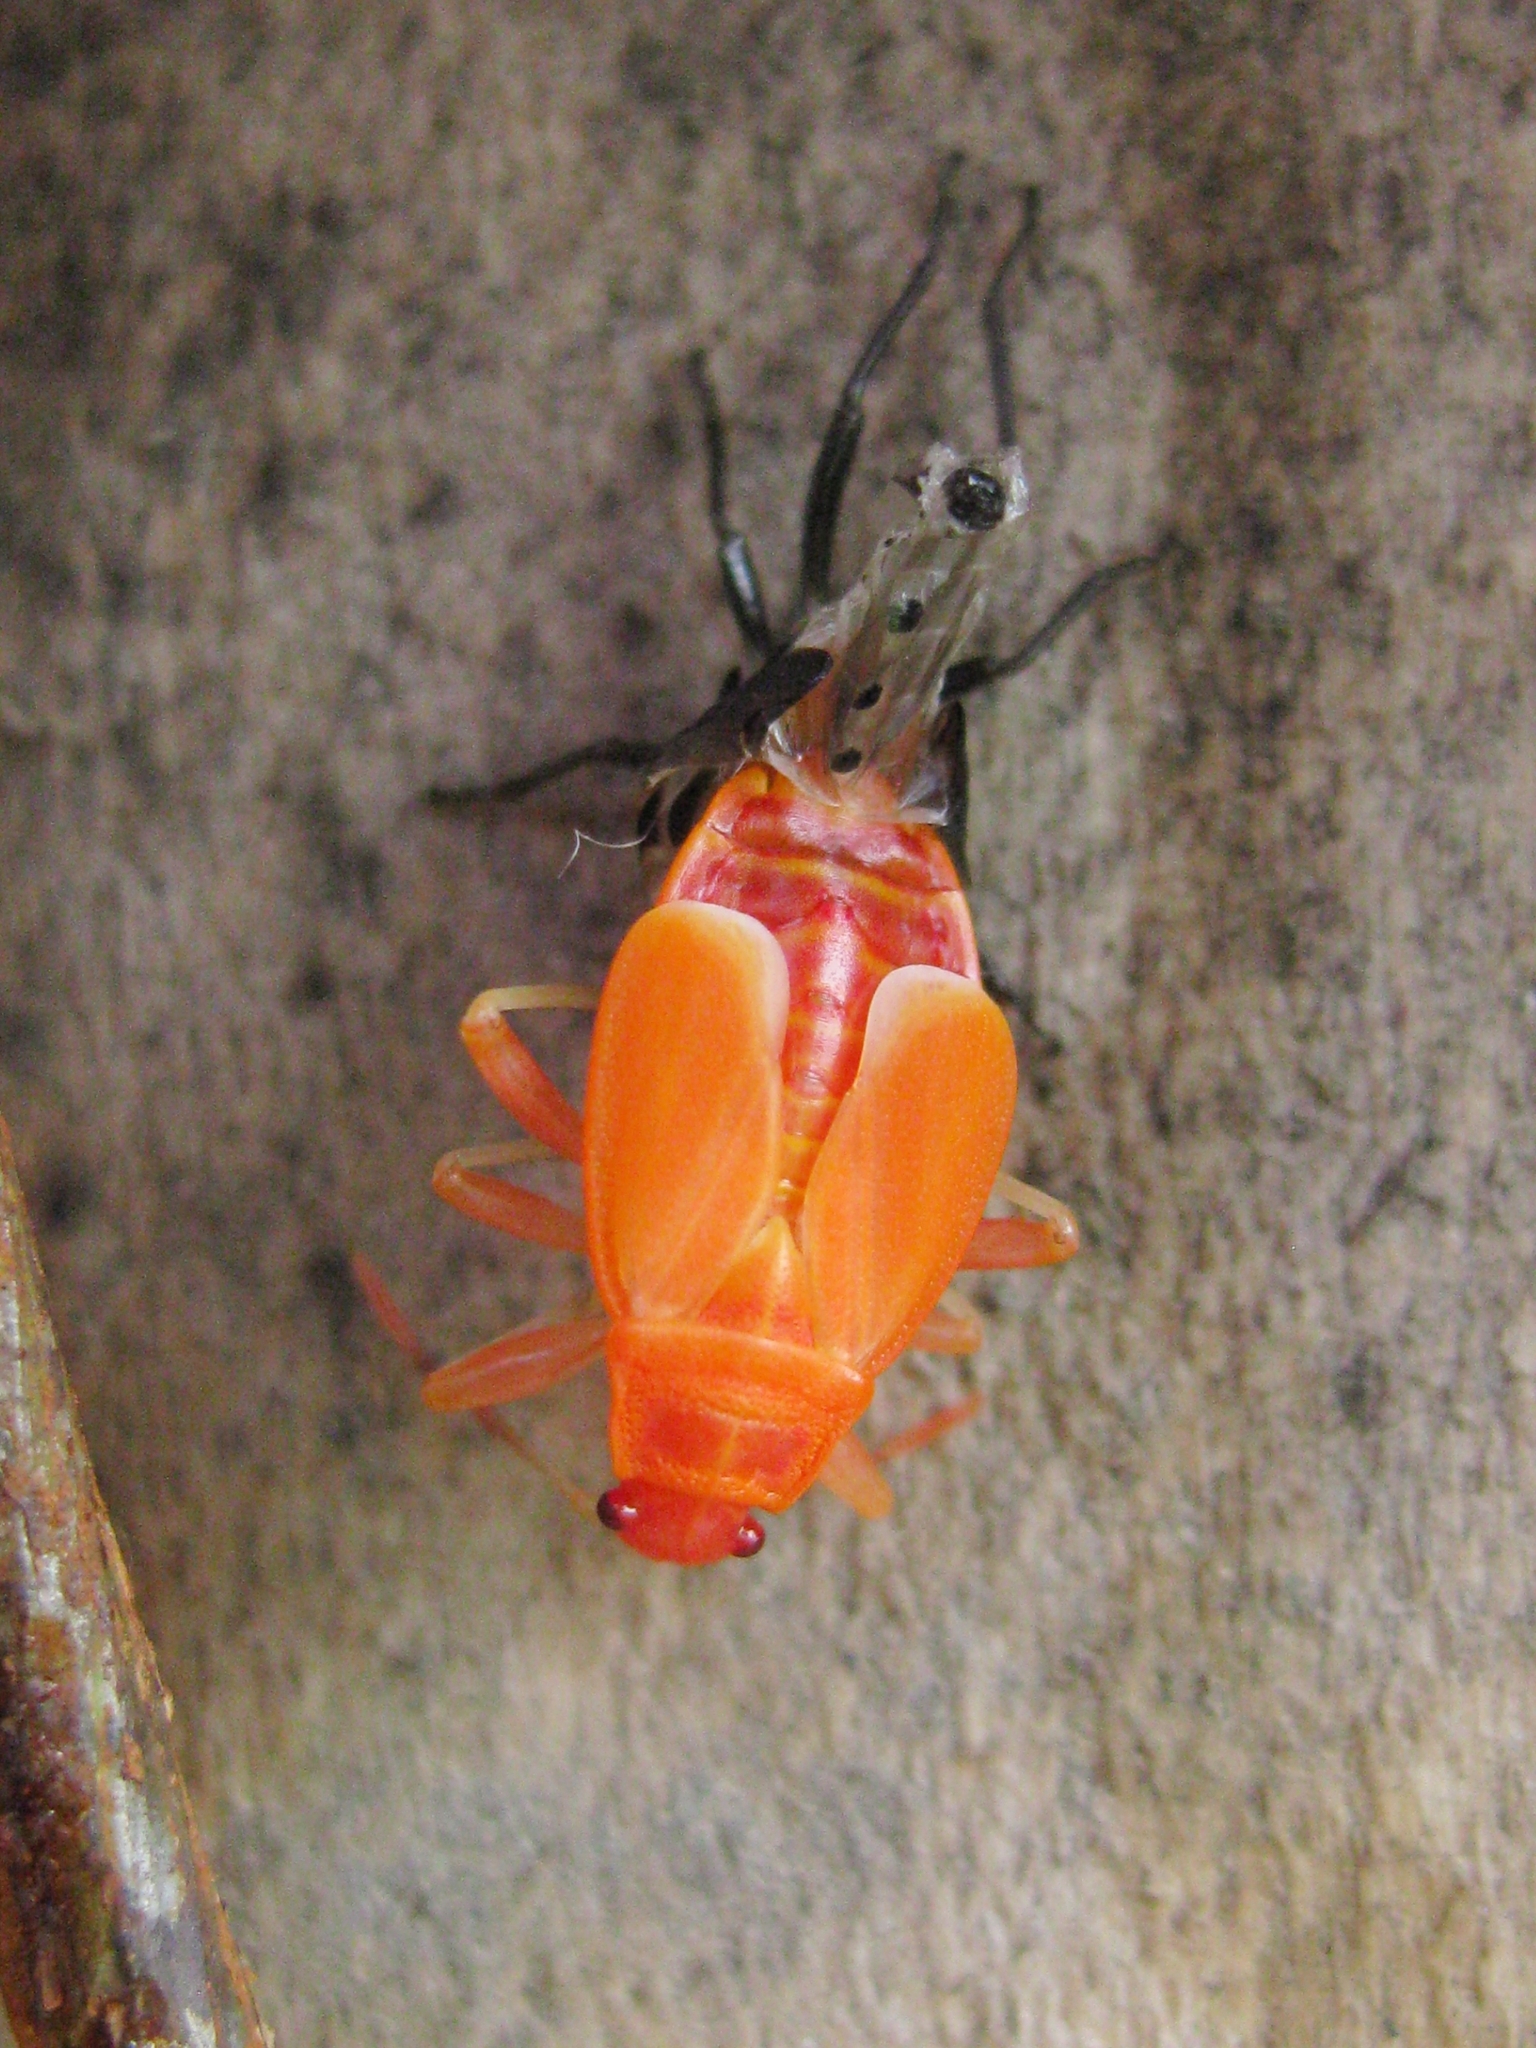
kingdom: Animalia
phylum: Arthropoda
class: Insecta
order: Hemiptera
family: Pyrrhocoridae
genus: Pyrrhocoris
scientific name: Pyrrhocoris apterus
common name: Firebug
